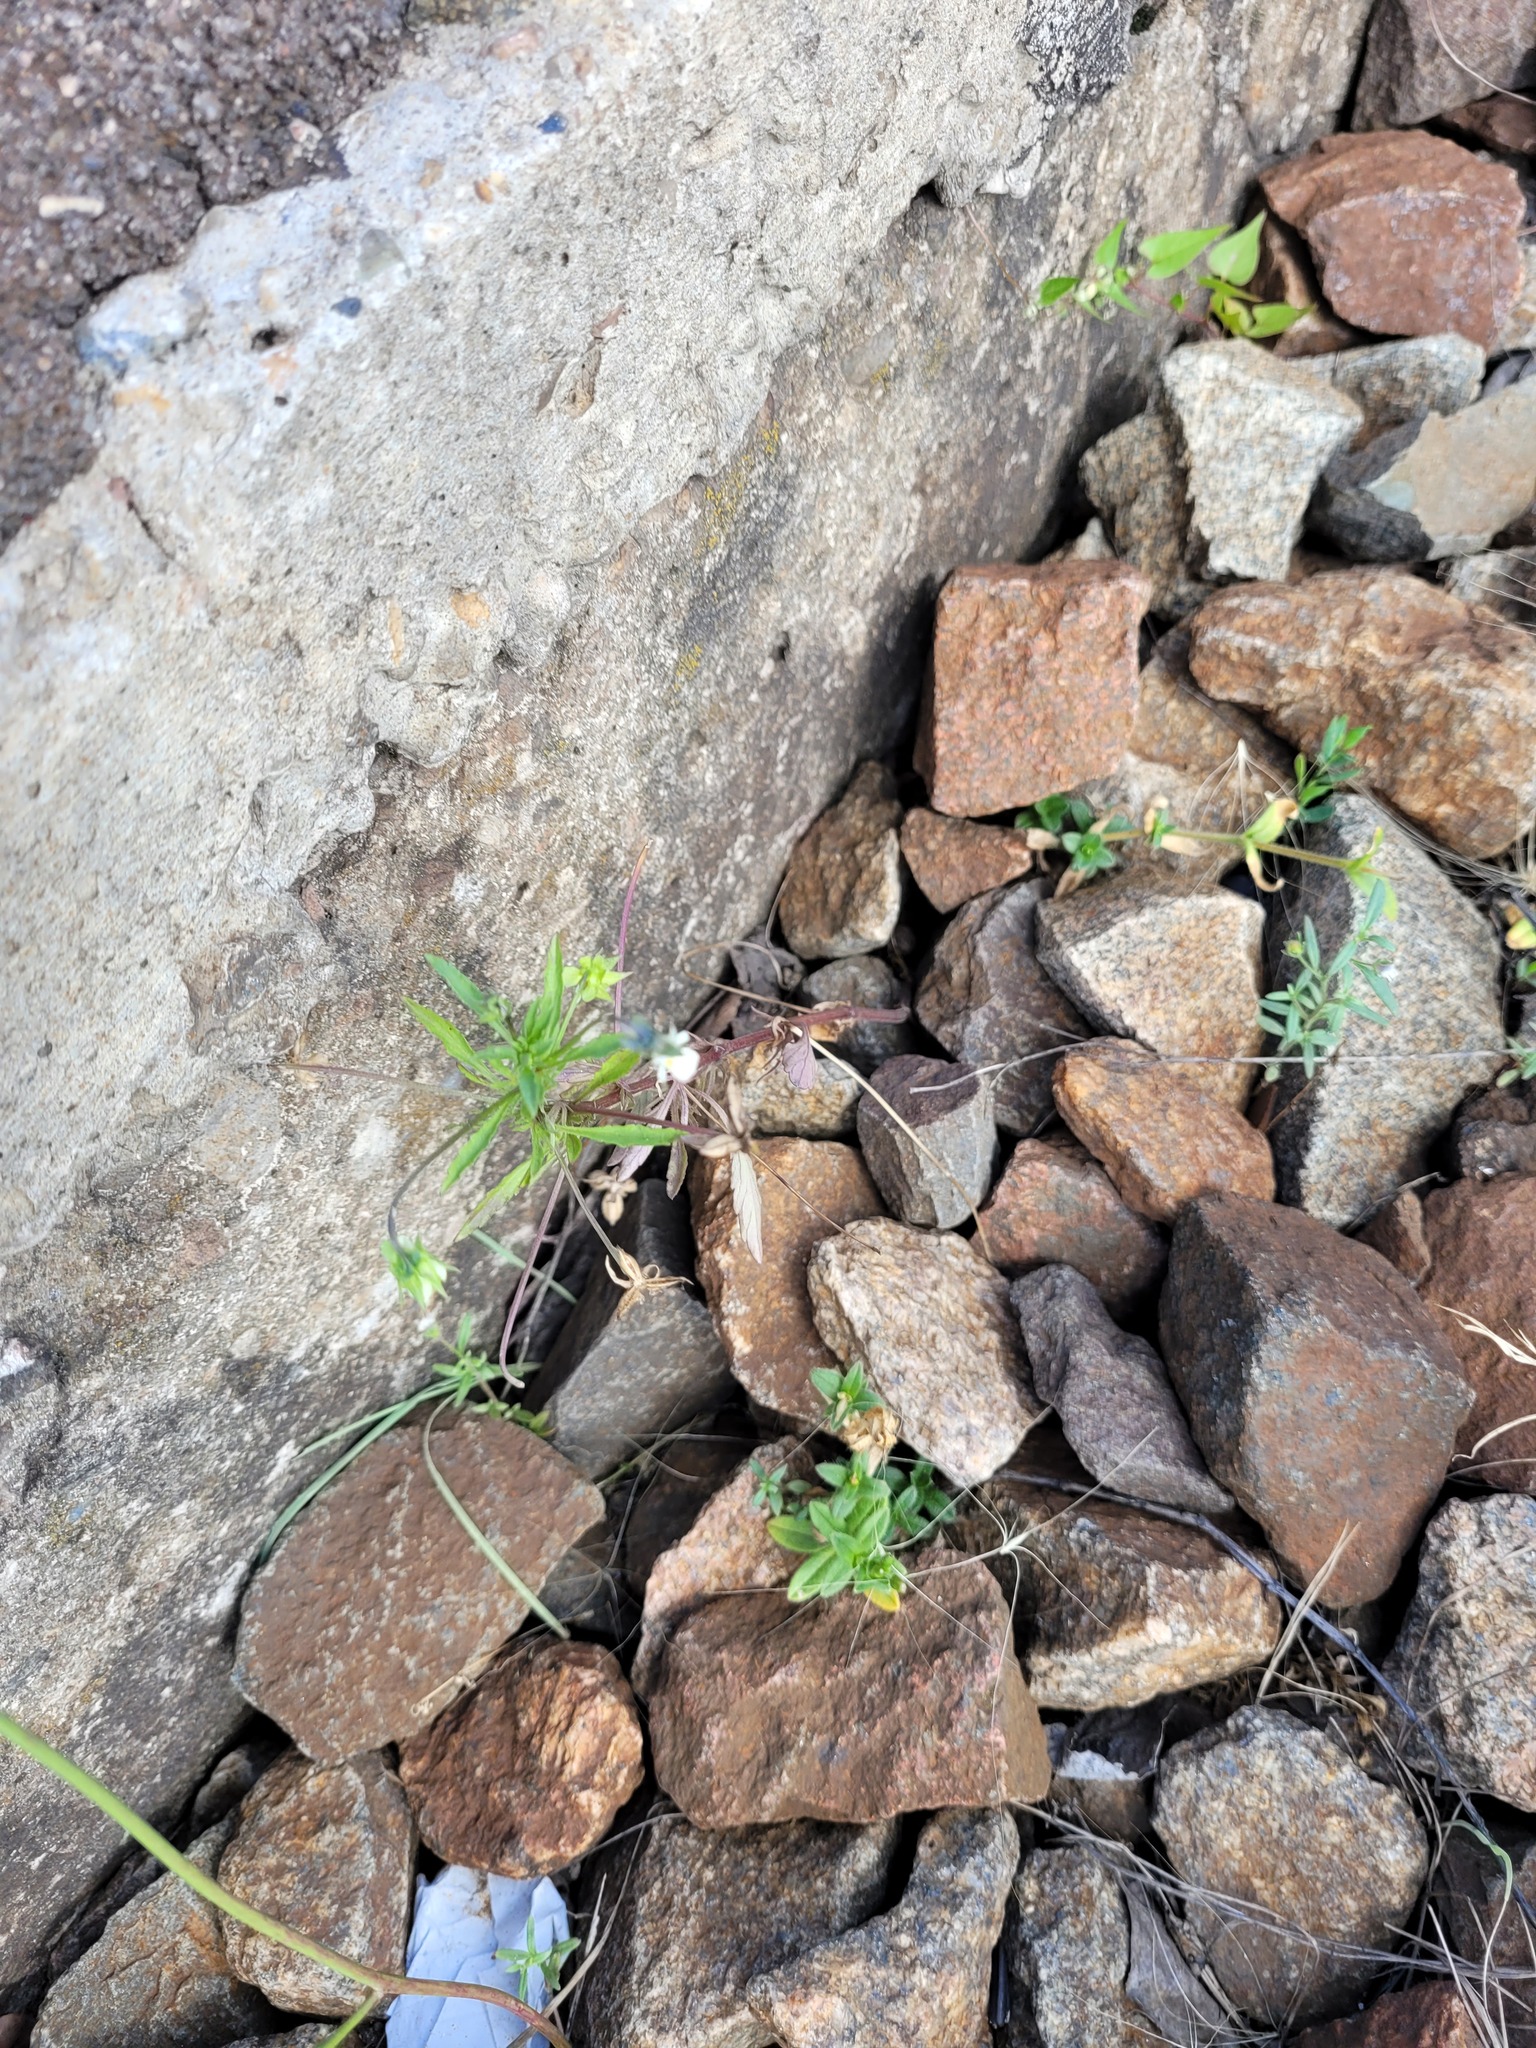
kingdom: Plantae
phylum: Tracheophyta
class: Magnoliopsida
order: Malpighiales
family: Violaceae
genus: Viola
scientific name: Viola arvensis
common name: Field pansy
